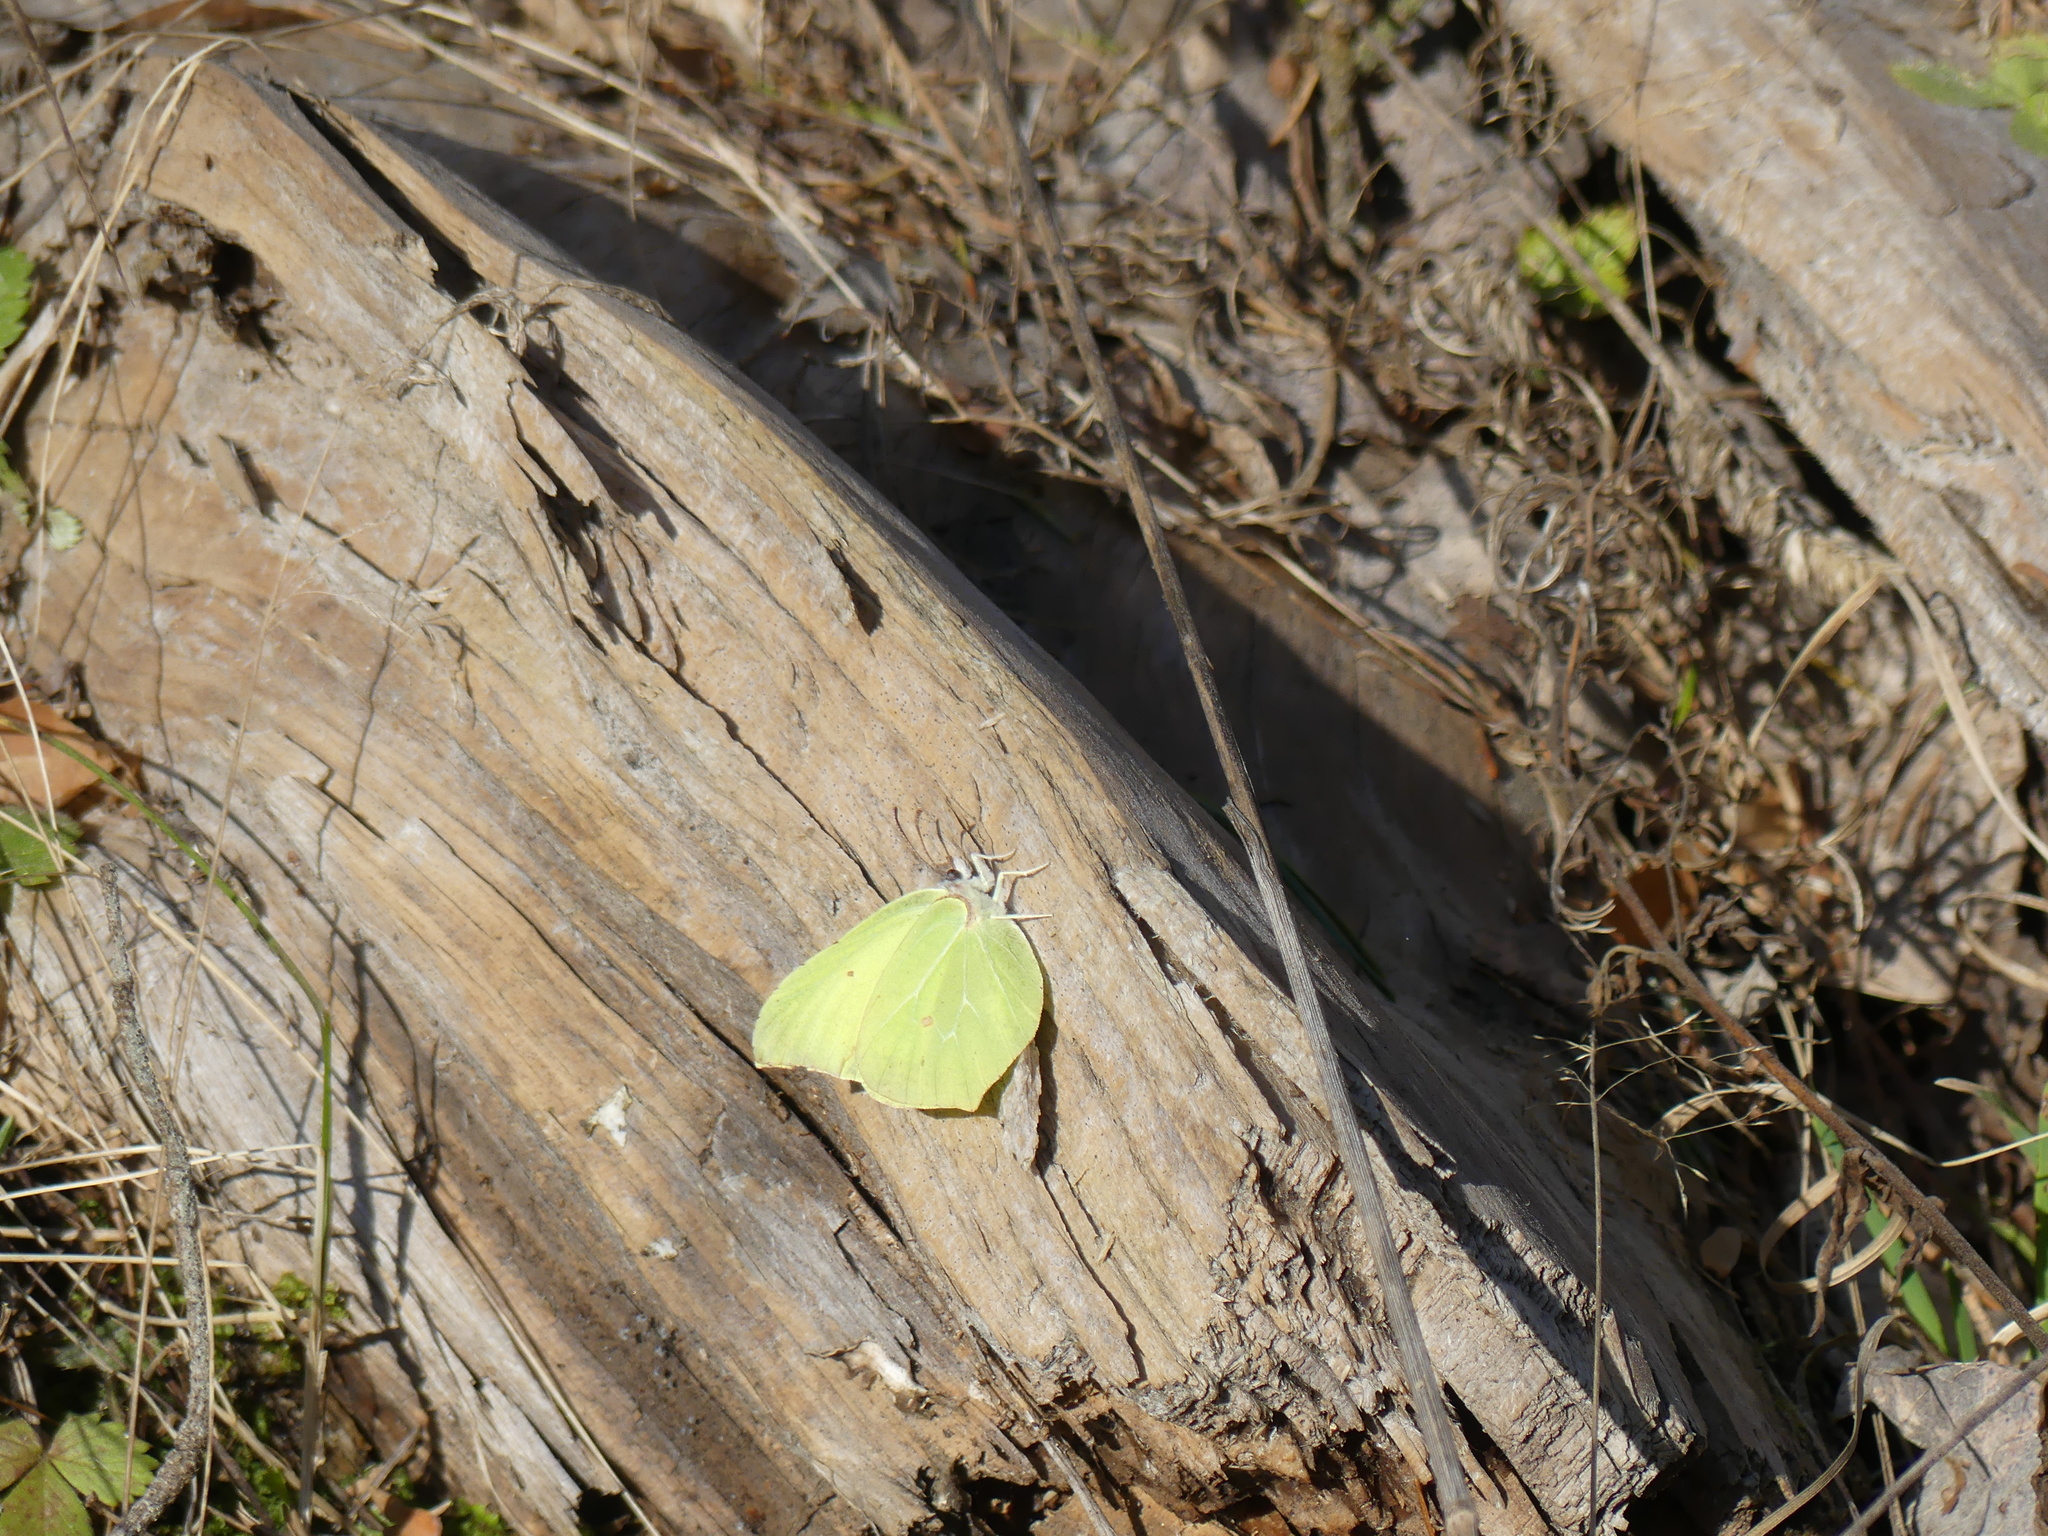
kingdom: Animalia
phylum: Arthropoda
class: Insecta
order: Lepidoptera
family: Pieridae
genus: Gonepteryx
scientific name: Gonepteryx rhamni
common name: Brimstone
